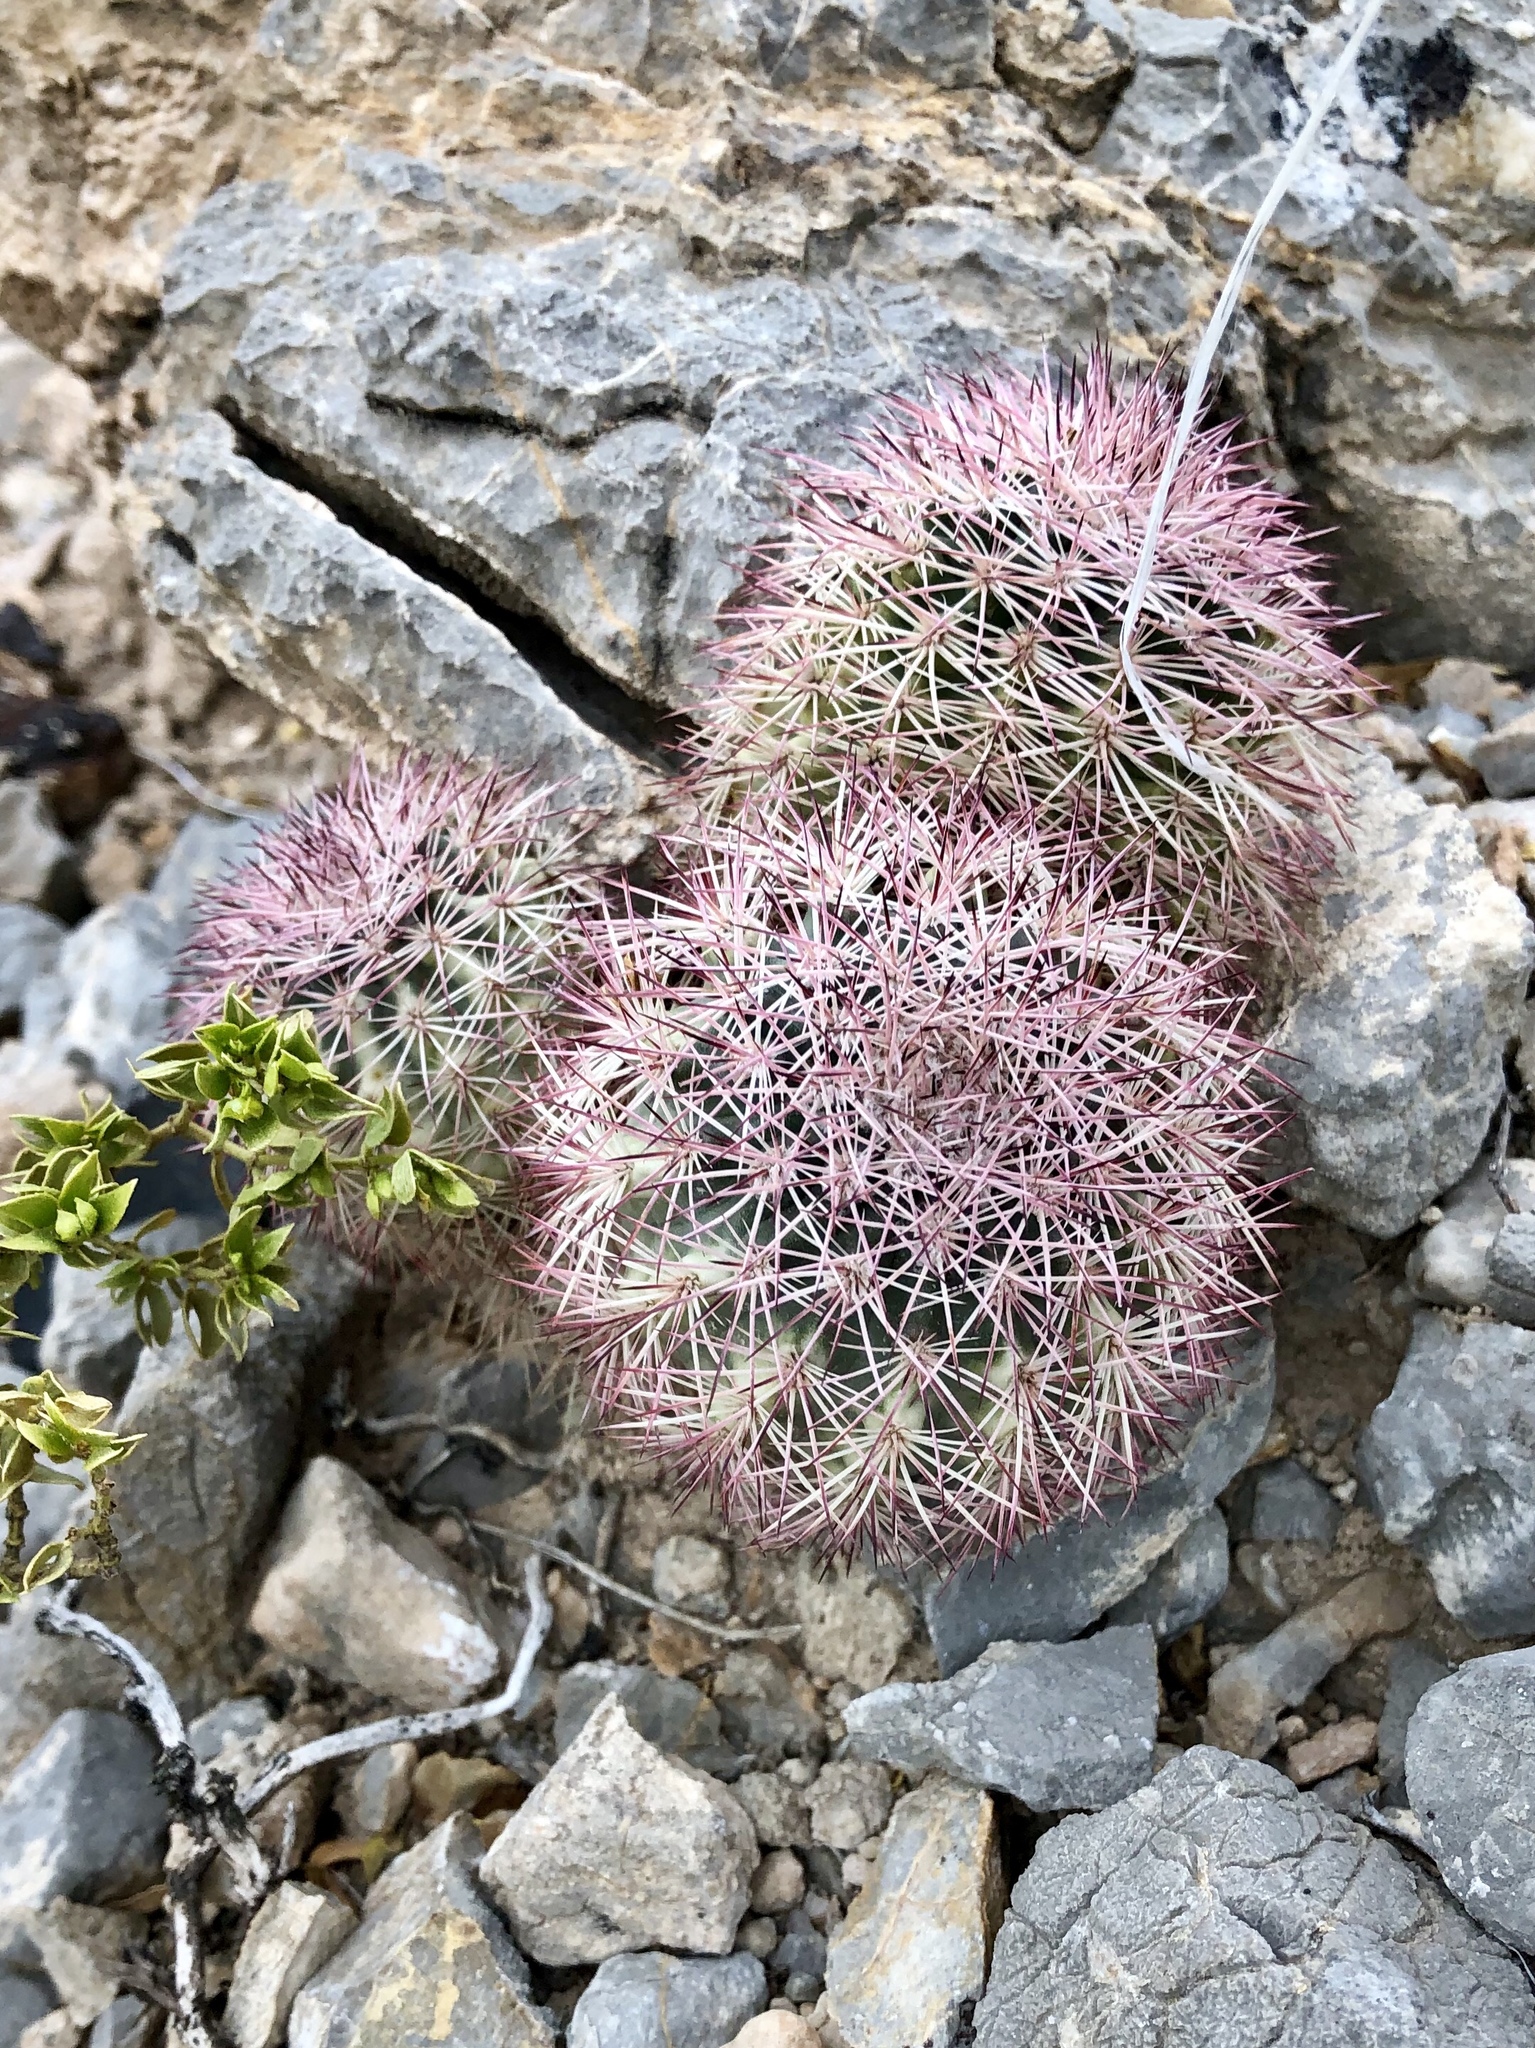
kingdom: Plantae
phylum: Tracheophyta
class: Magnoliopsida
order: Caryophyllales
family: Cactaceae
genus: Echinocereus
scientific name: Echinocereus dasyacanthus
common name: Spiny hedgehog cactus
